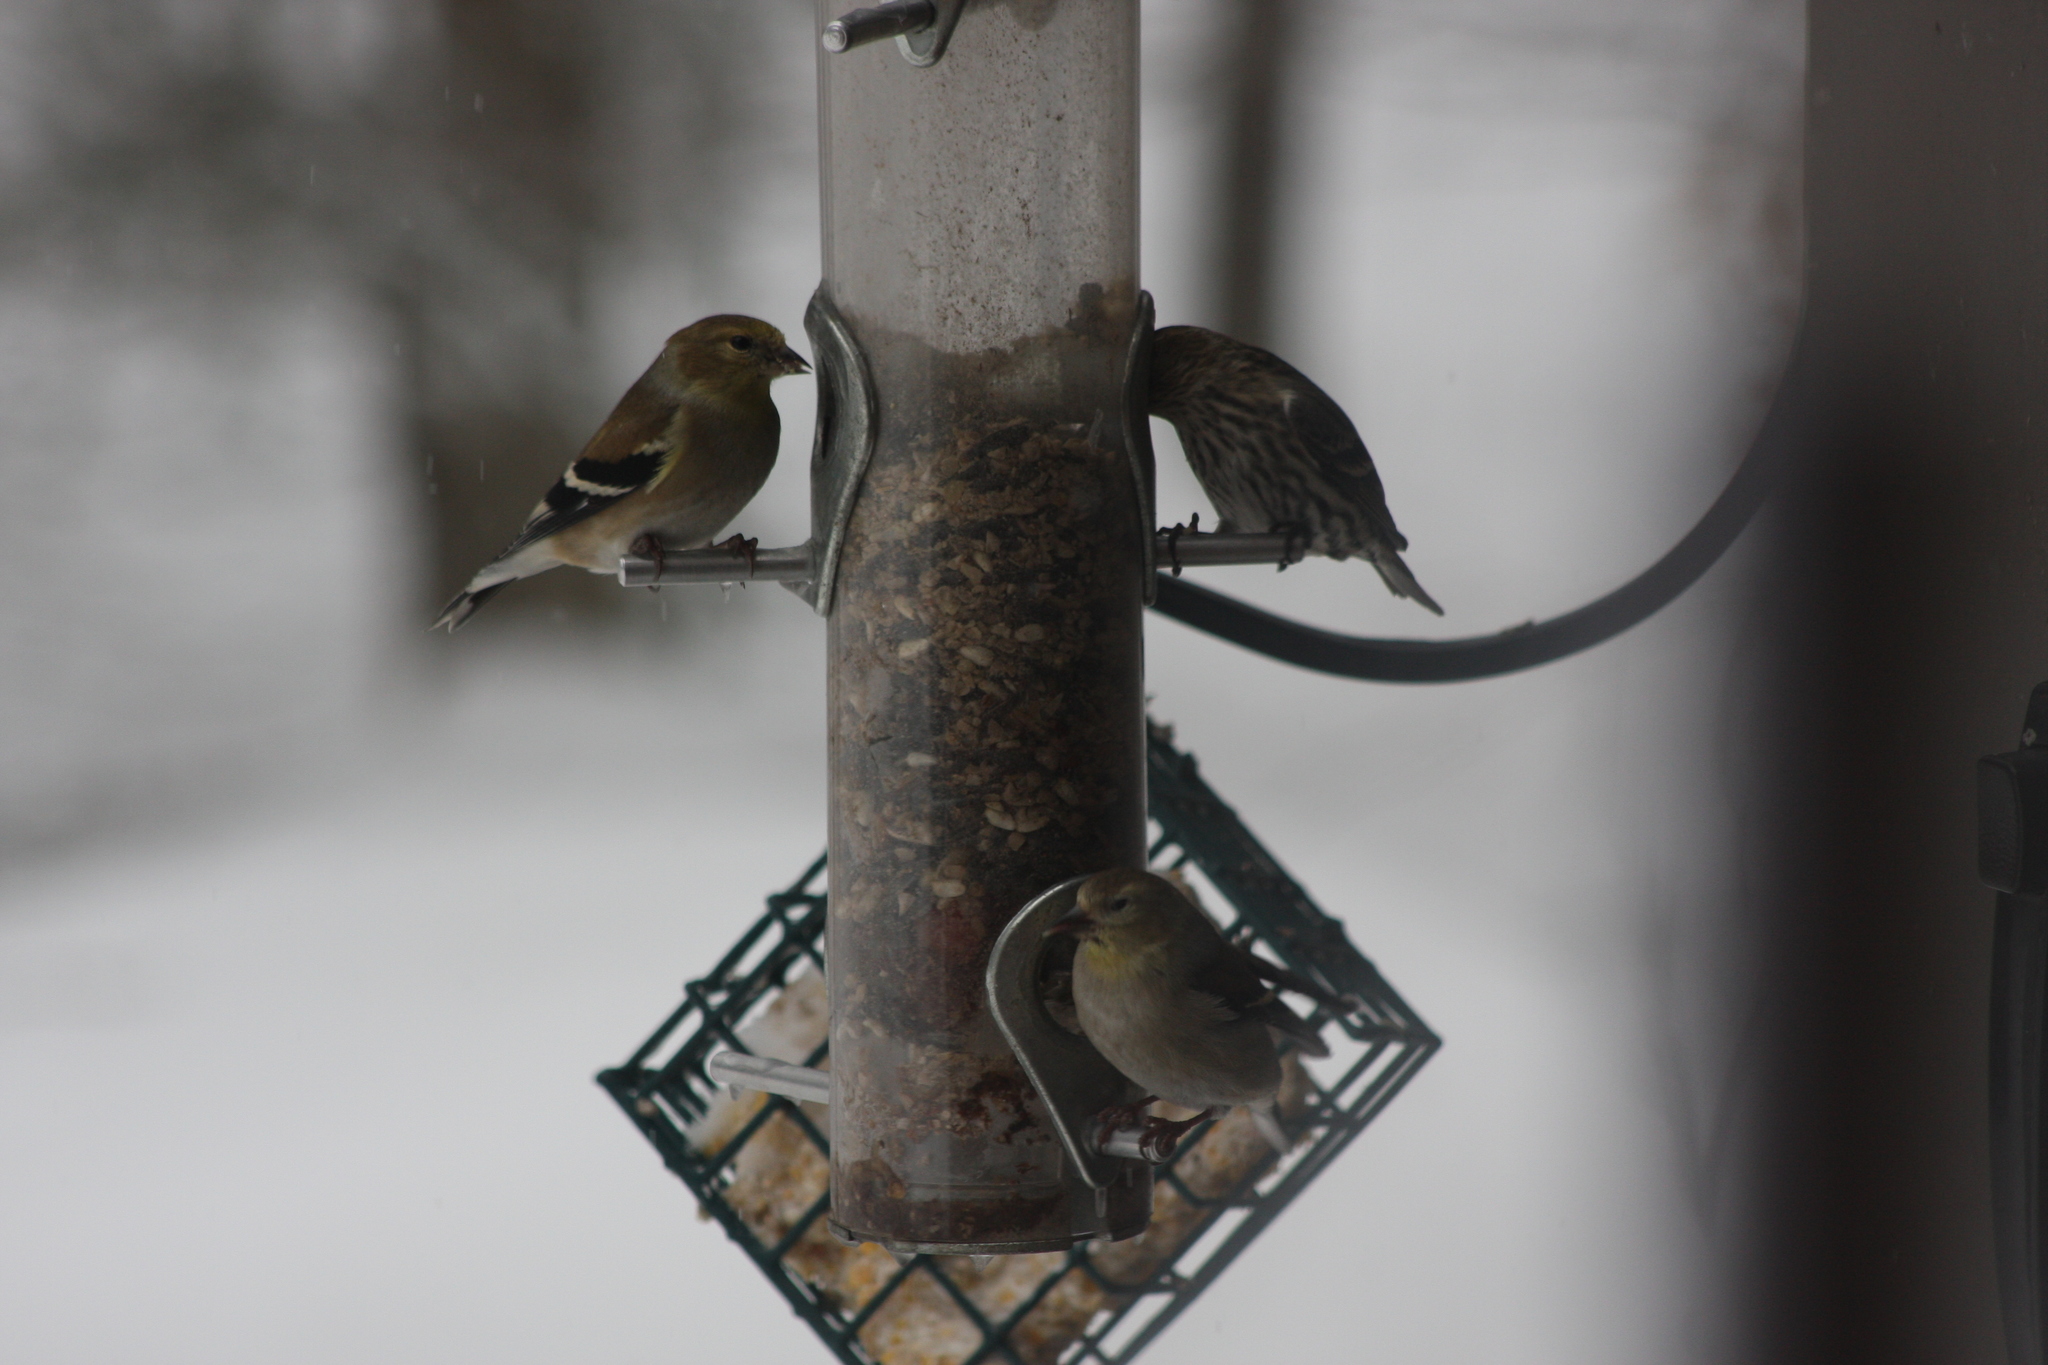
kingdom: Animalia
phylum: Chordata
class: Aves
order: Passeriformes
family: Fringillidae
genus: Spinus
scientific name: Spinus tristis
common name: American goldfinch
